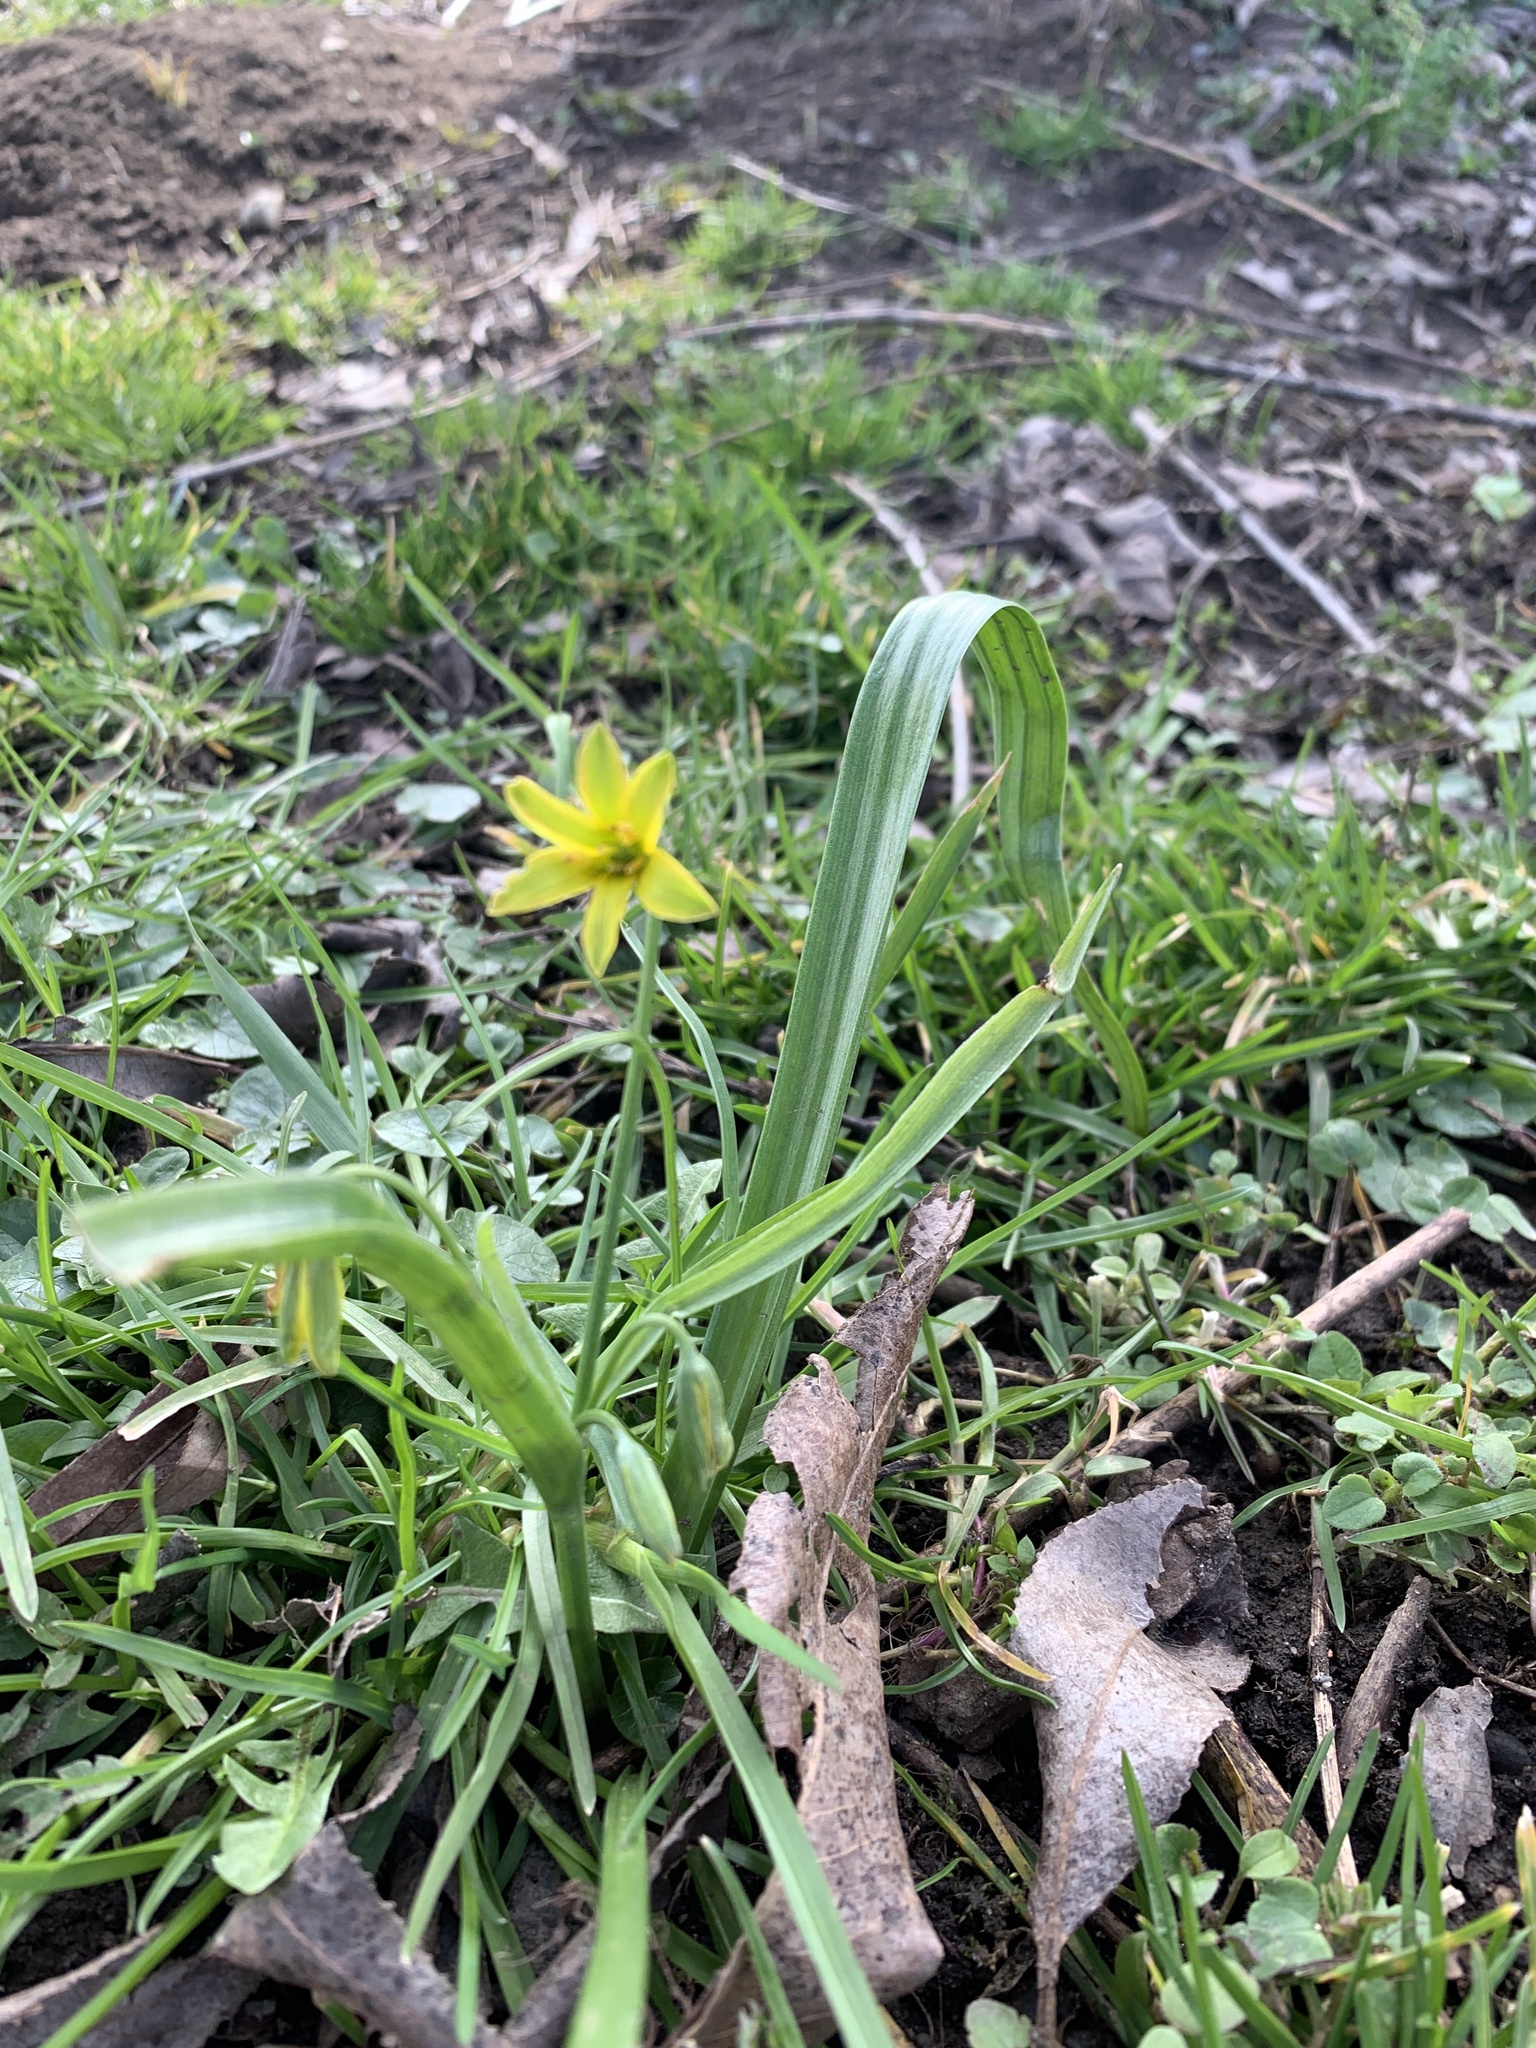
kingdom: Plantae
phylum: Tracheophyta
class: Liliopsida
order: Liliales
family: Liliaceae
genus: Gagea
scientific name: Gagea lutea
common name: Yellow star-of-bethlehem
